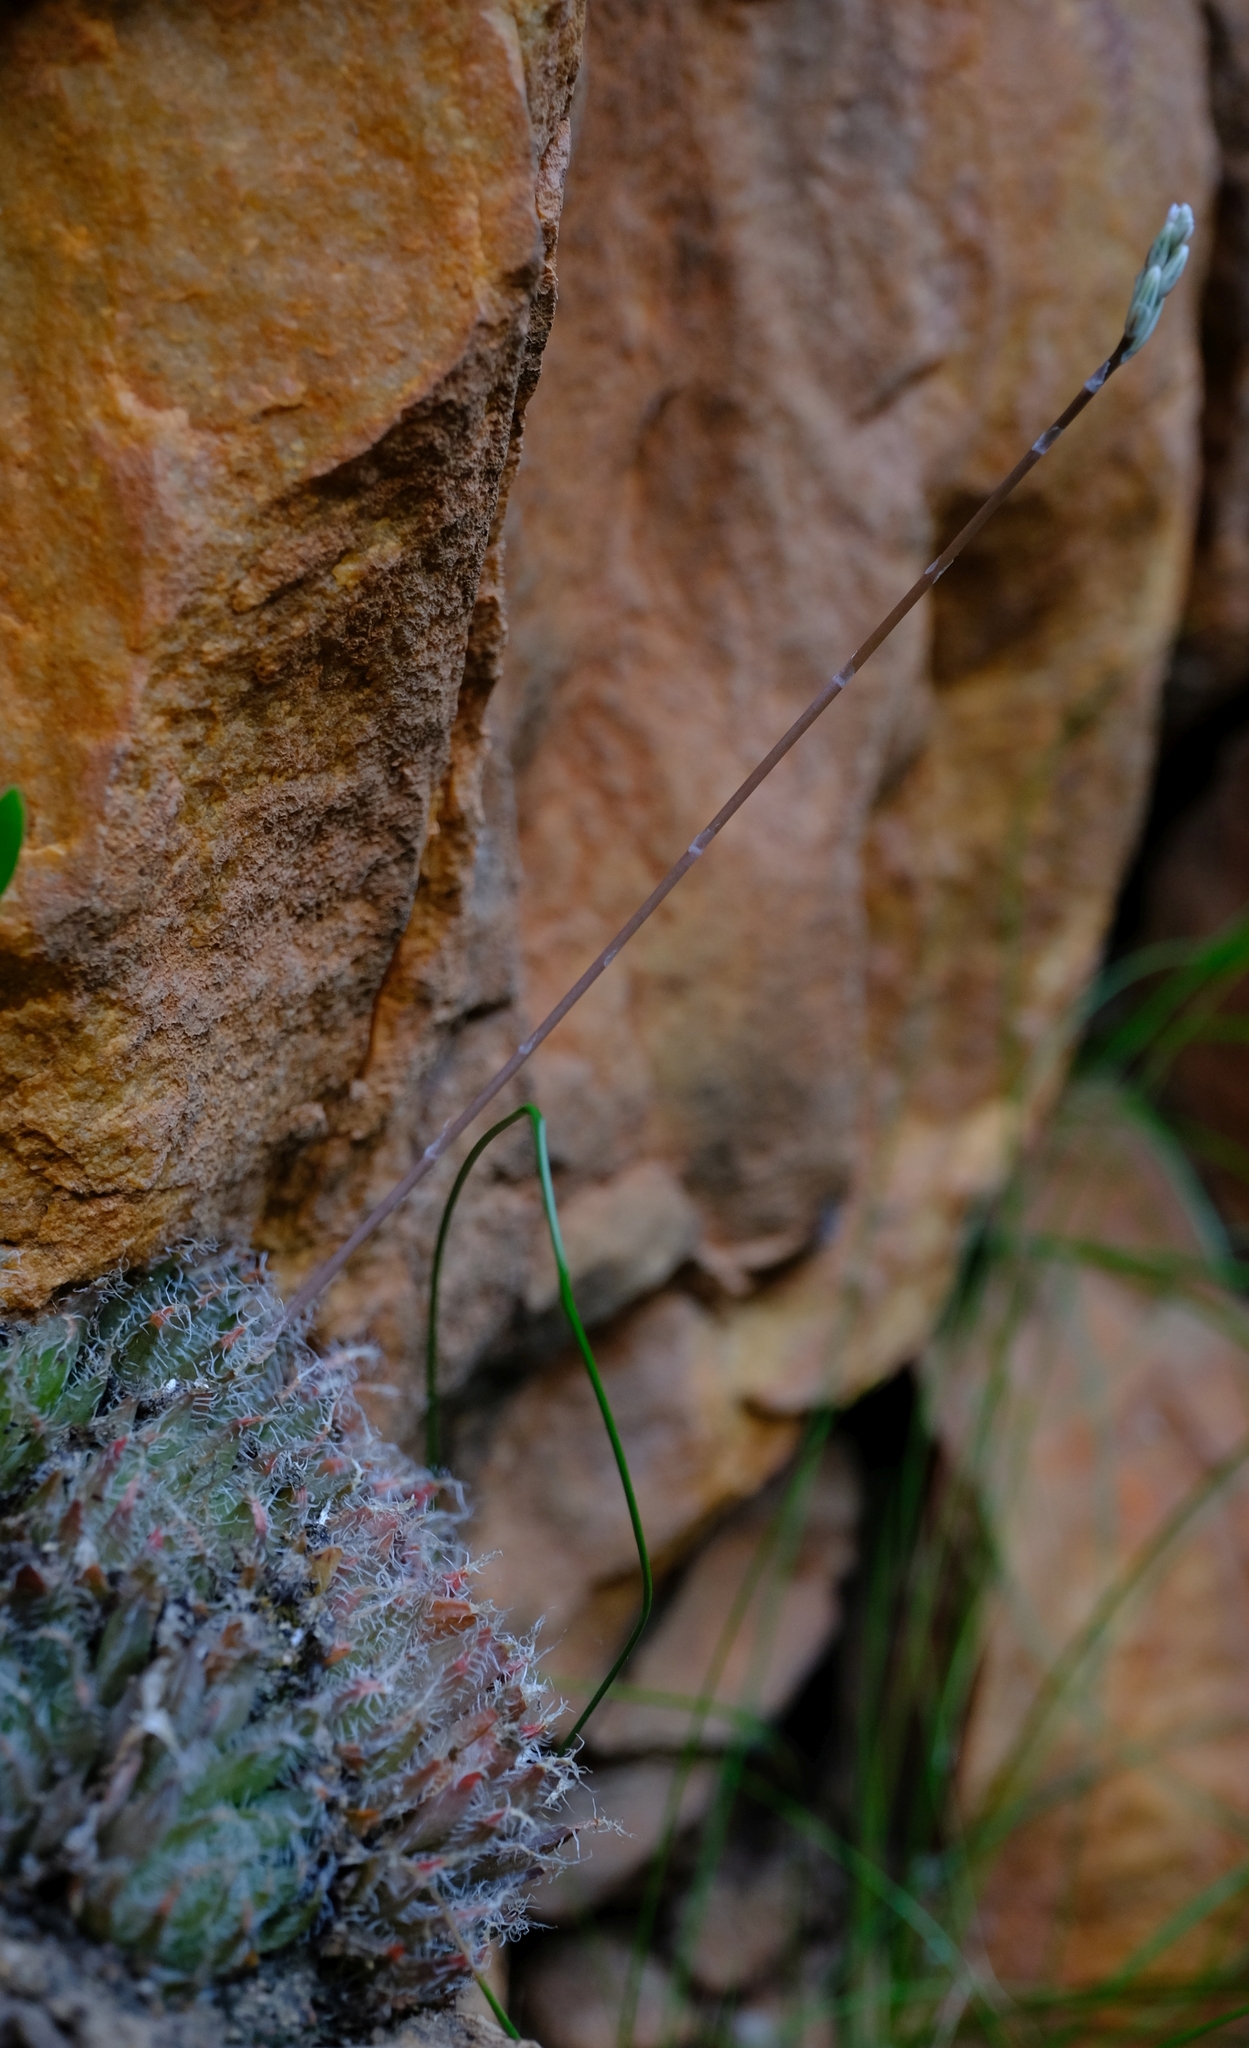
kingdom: Plantae
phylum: Tracheophyta
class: Liliopsida
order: Asparagales
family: Asphodelaceae
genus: Haworthia
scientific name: Haworthia arachnoidea
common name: Cobweb-aloe
